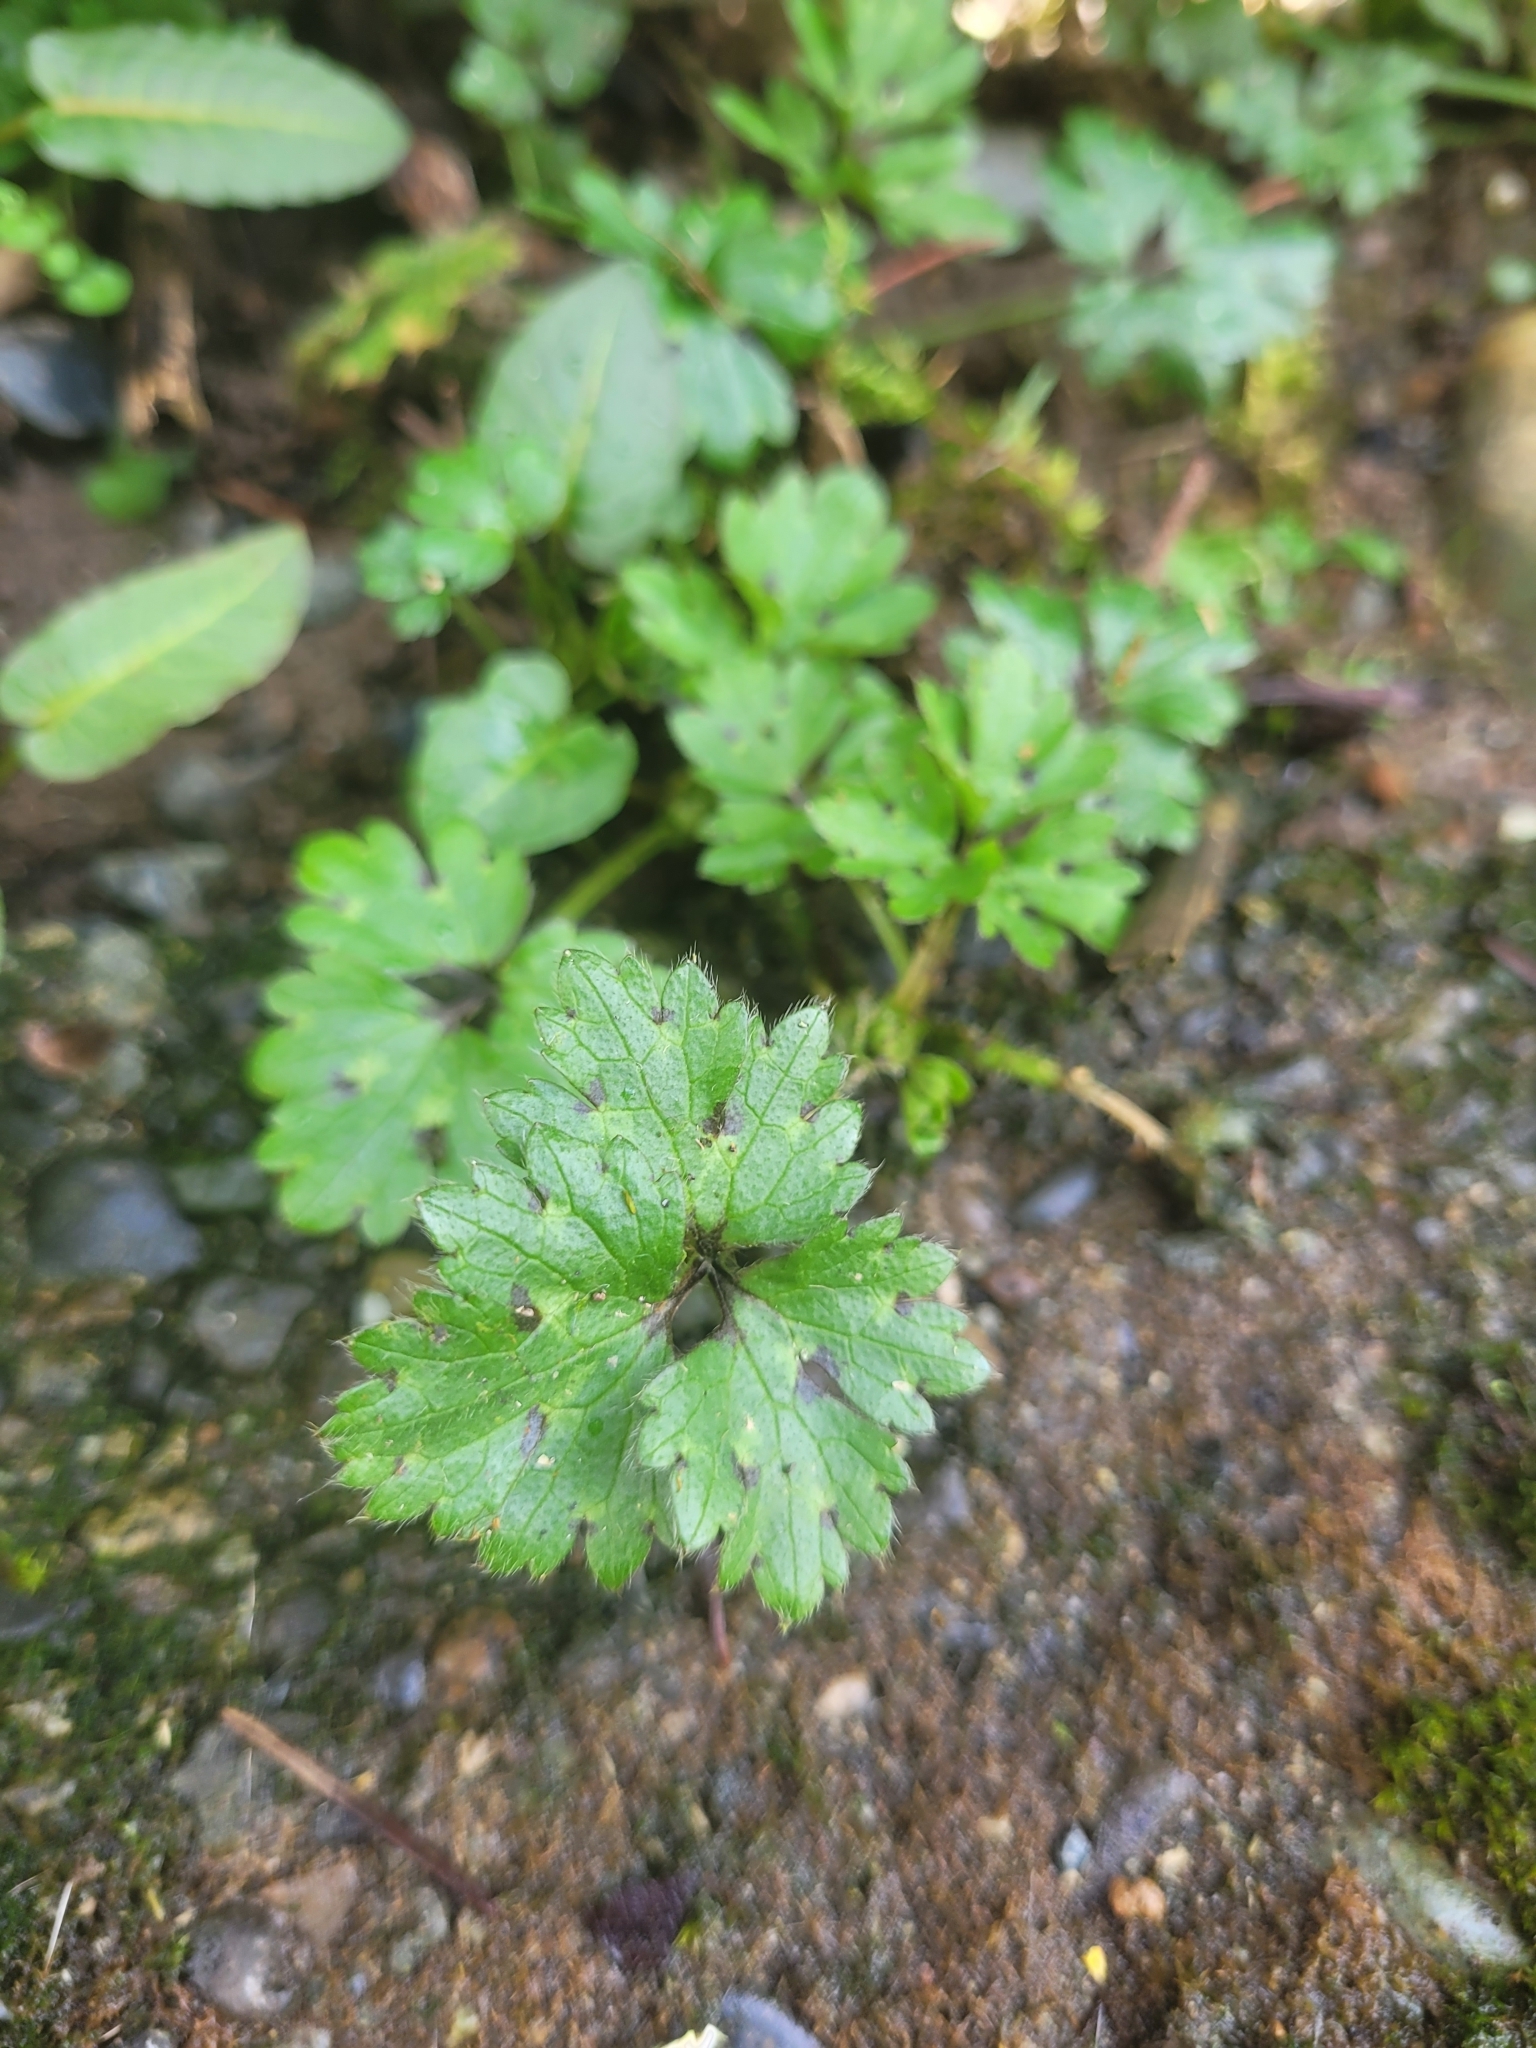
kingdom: Plantae
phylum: Tracheophyta
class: Magnoliopsida
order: Ranunculales
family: Ranunculaceae
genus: Ranunculus
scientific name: Ranunculus repens
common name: Creeping buttercup
